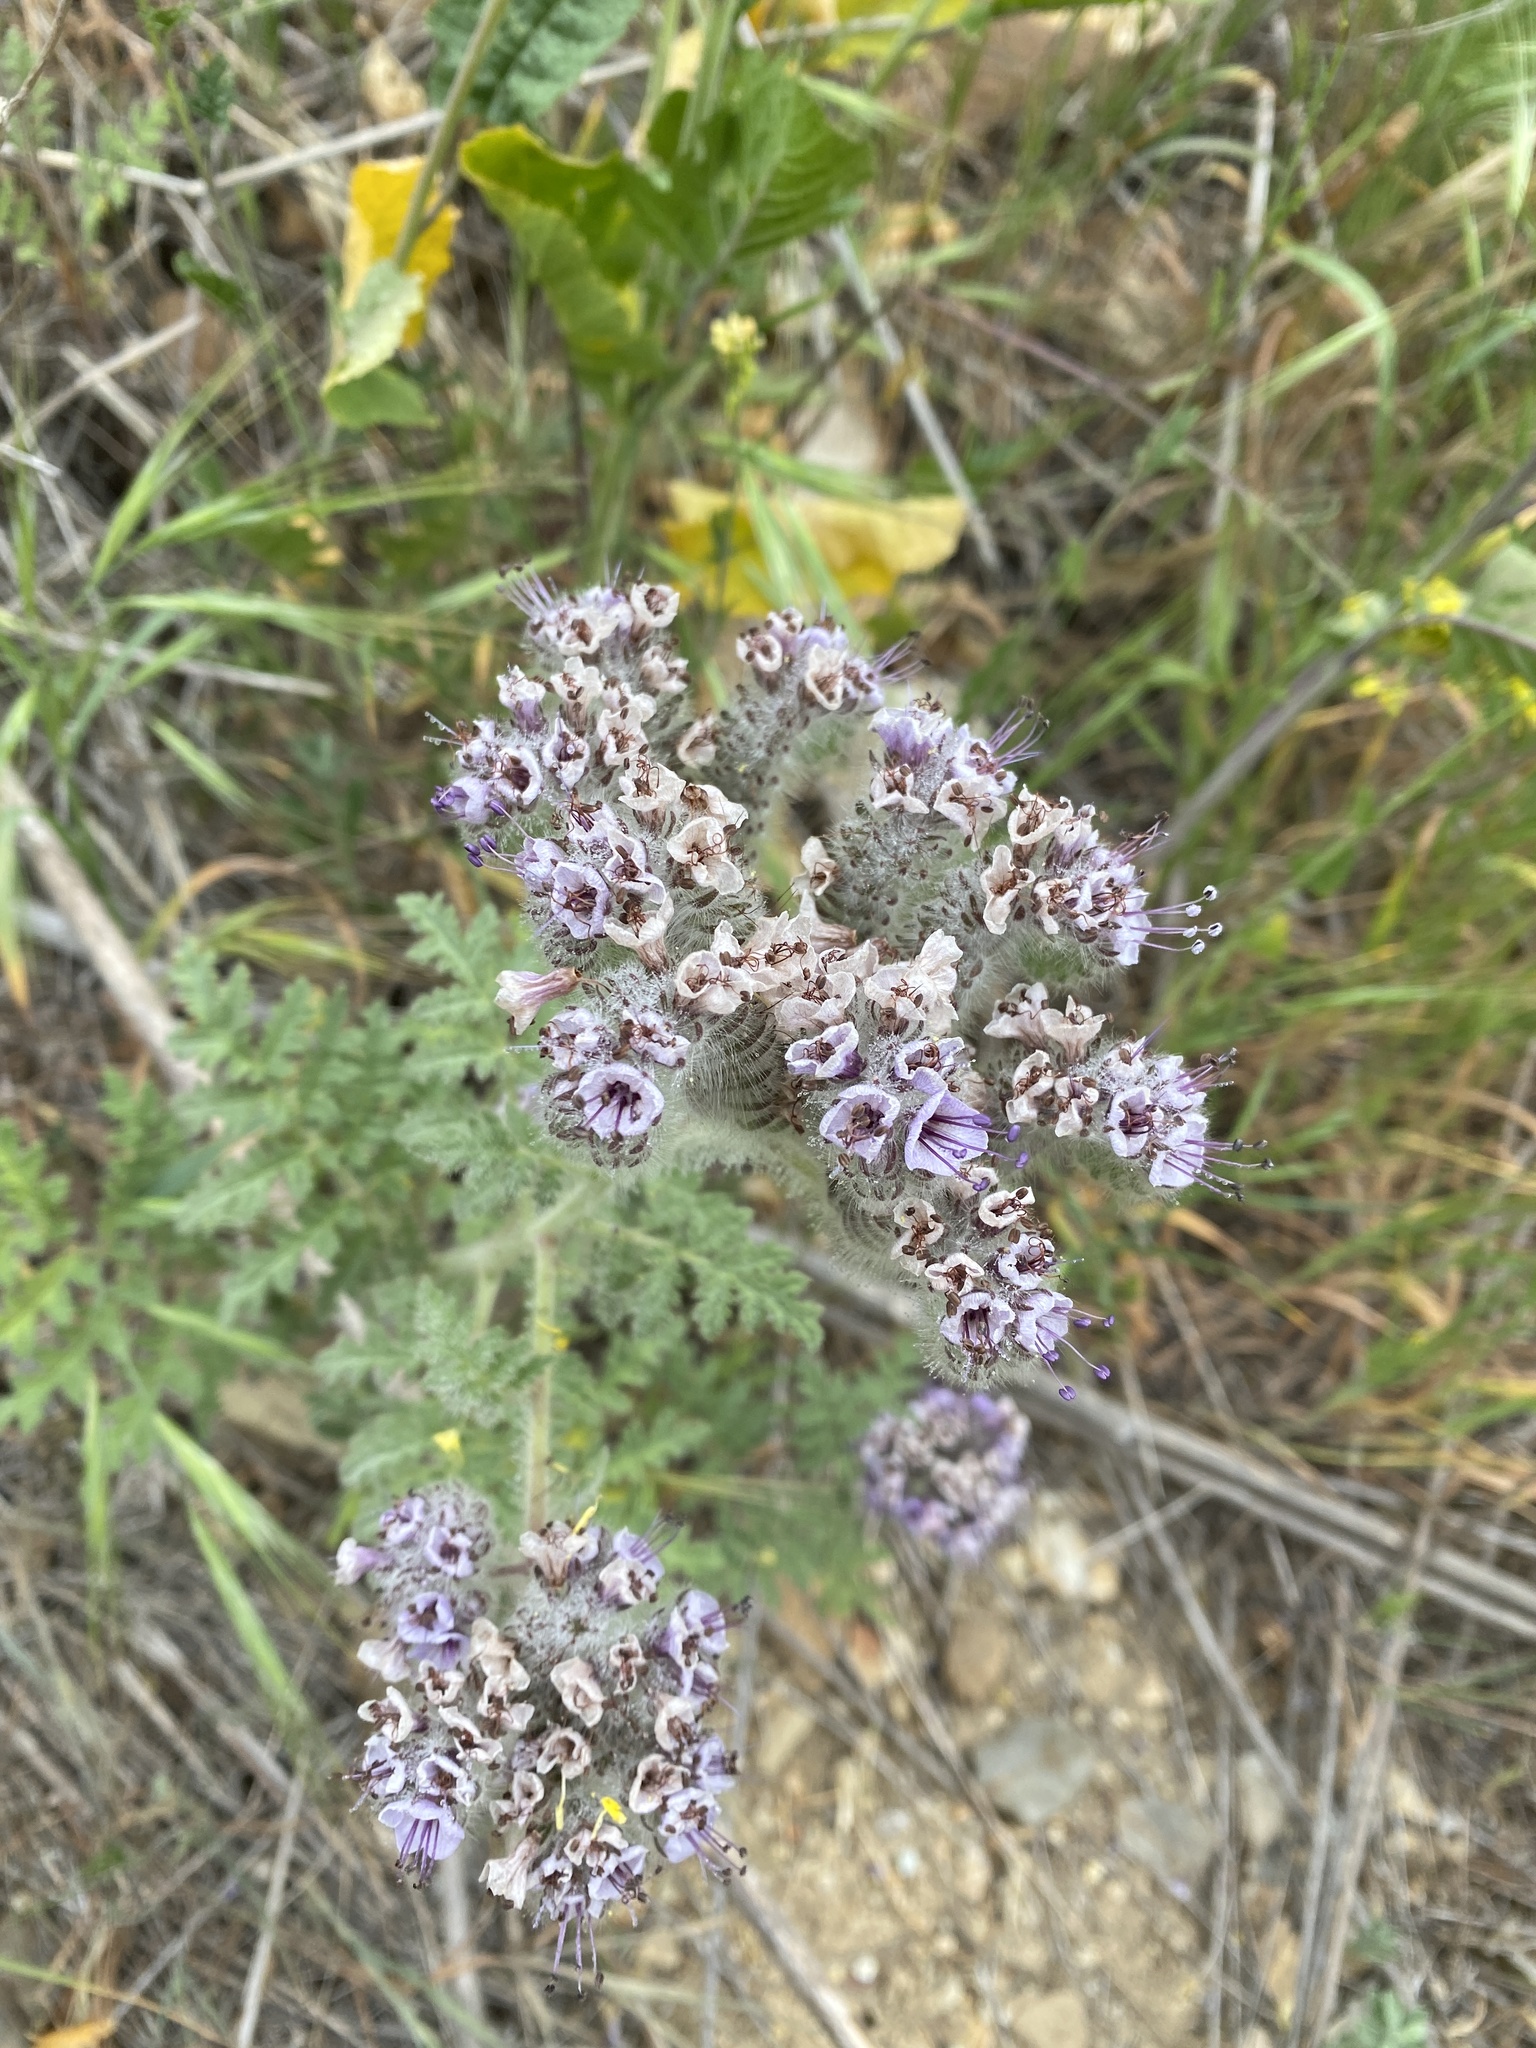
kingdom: Plantae
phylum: Tracheophyta
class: Magnoliopsida
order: Boraginales
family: Hydrophyllaceae
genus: Phacelia
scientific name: Phacelia hubbyi
